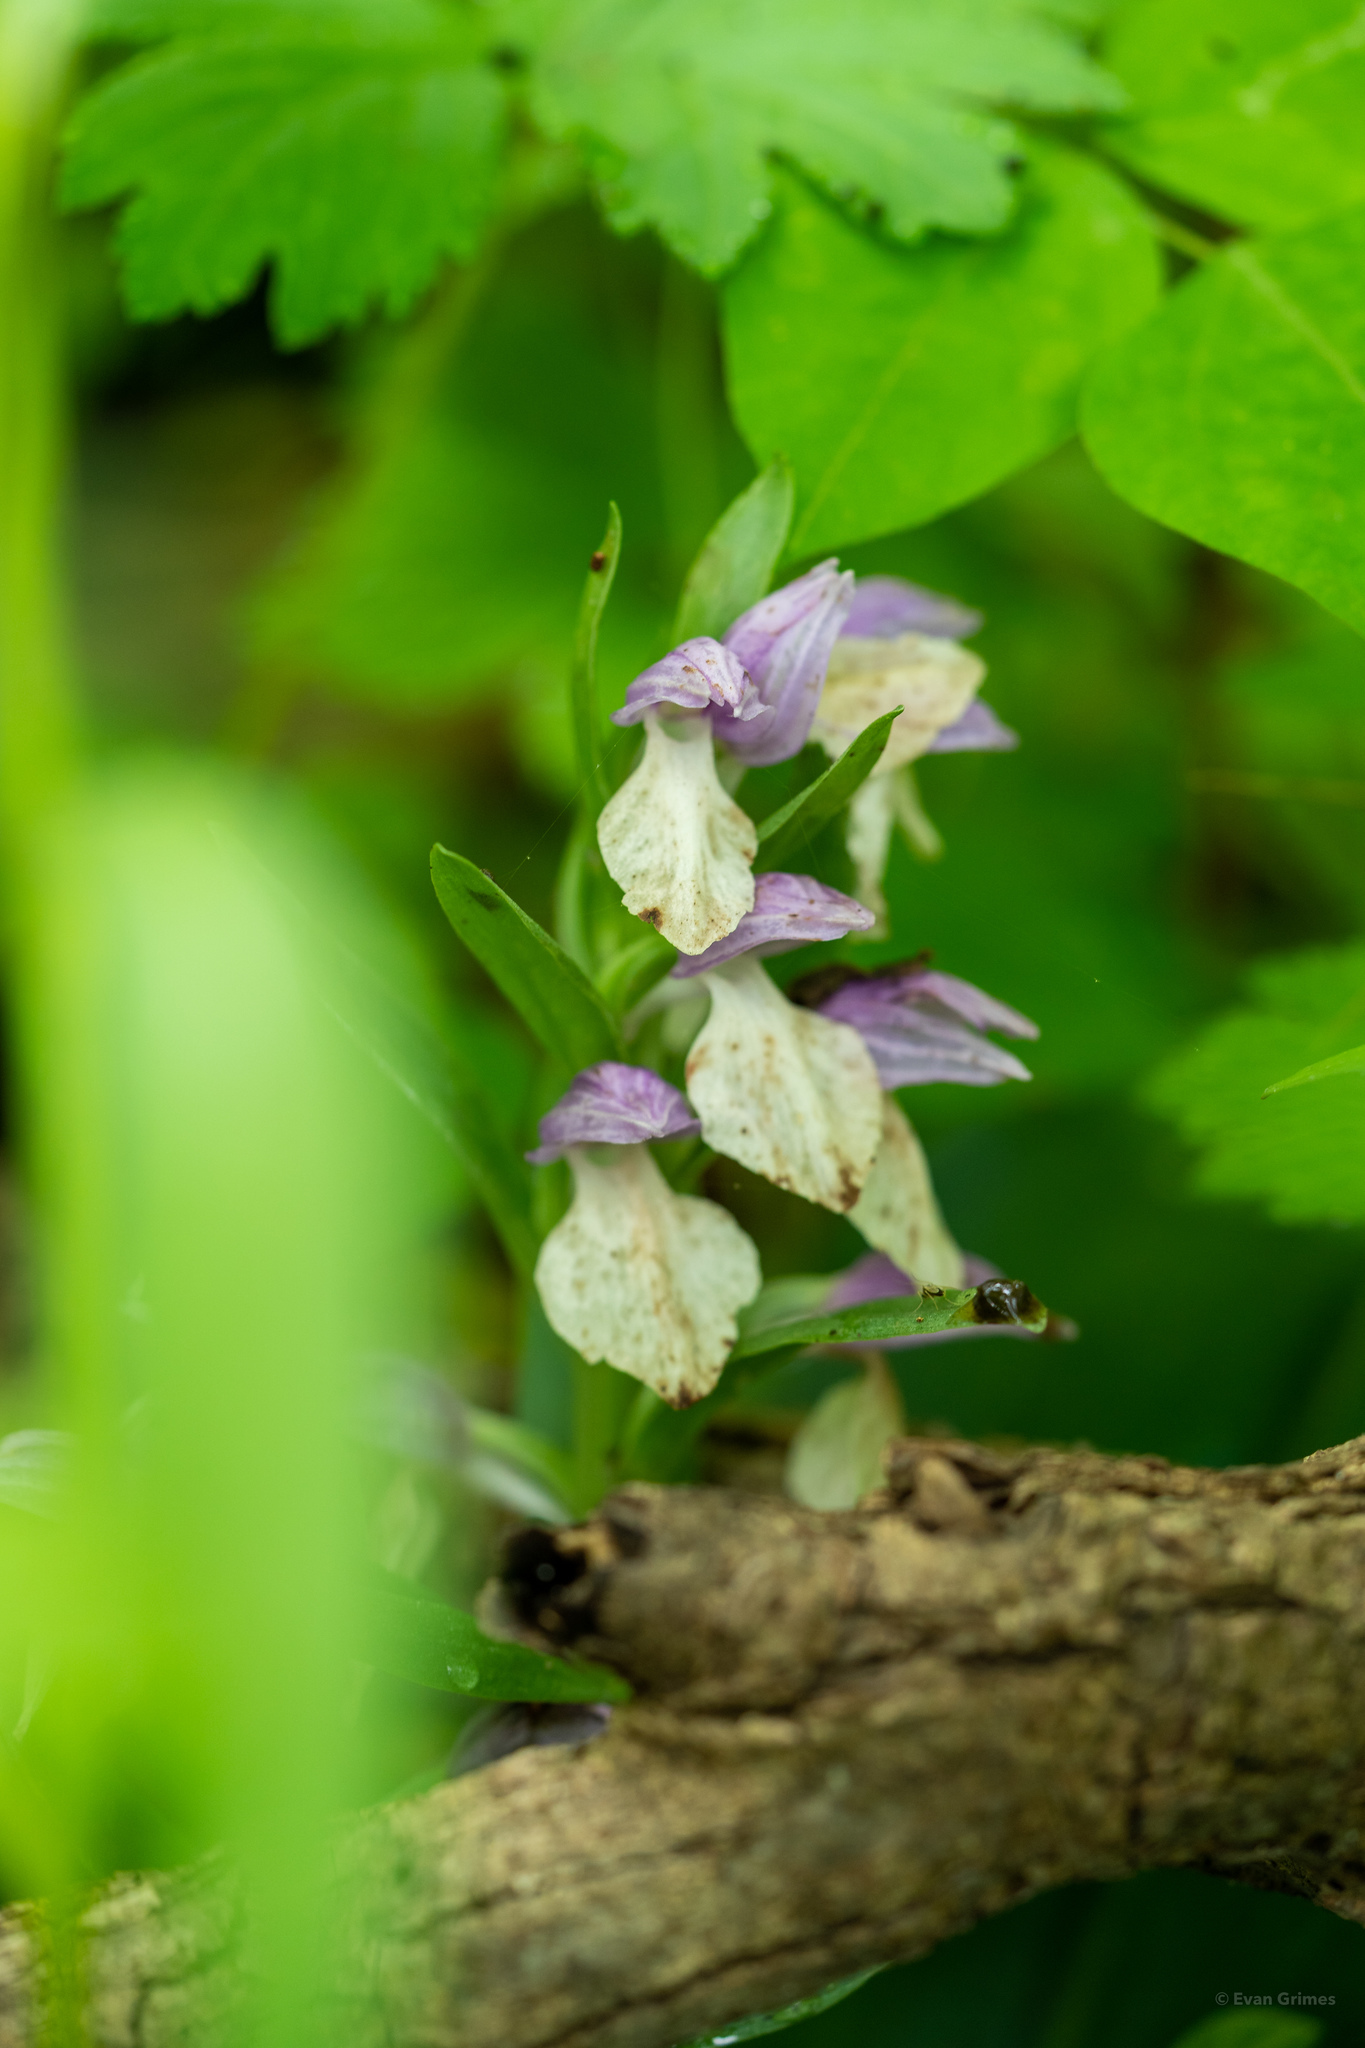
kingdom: Plantae
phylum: Tracheophyta
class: Liliopsida
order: Asparagales
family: Orchidaceae
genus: Galearis
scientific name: Galearis spectabilis
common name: Purple-hooded orchis
